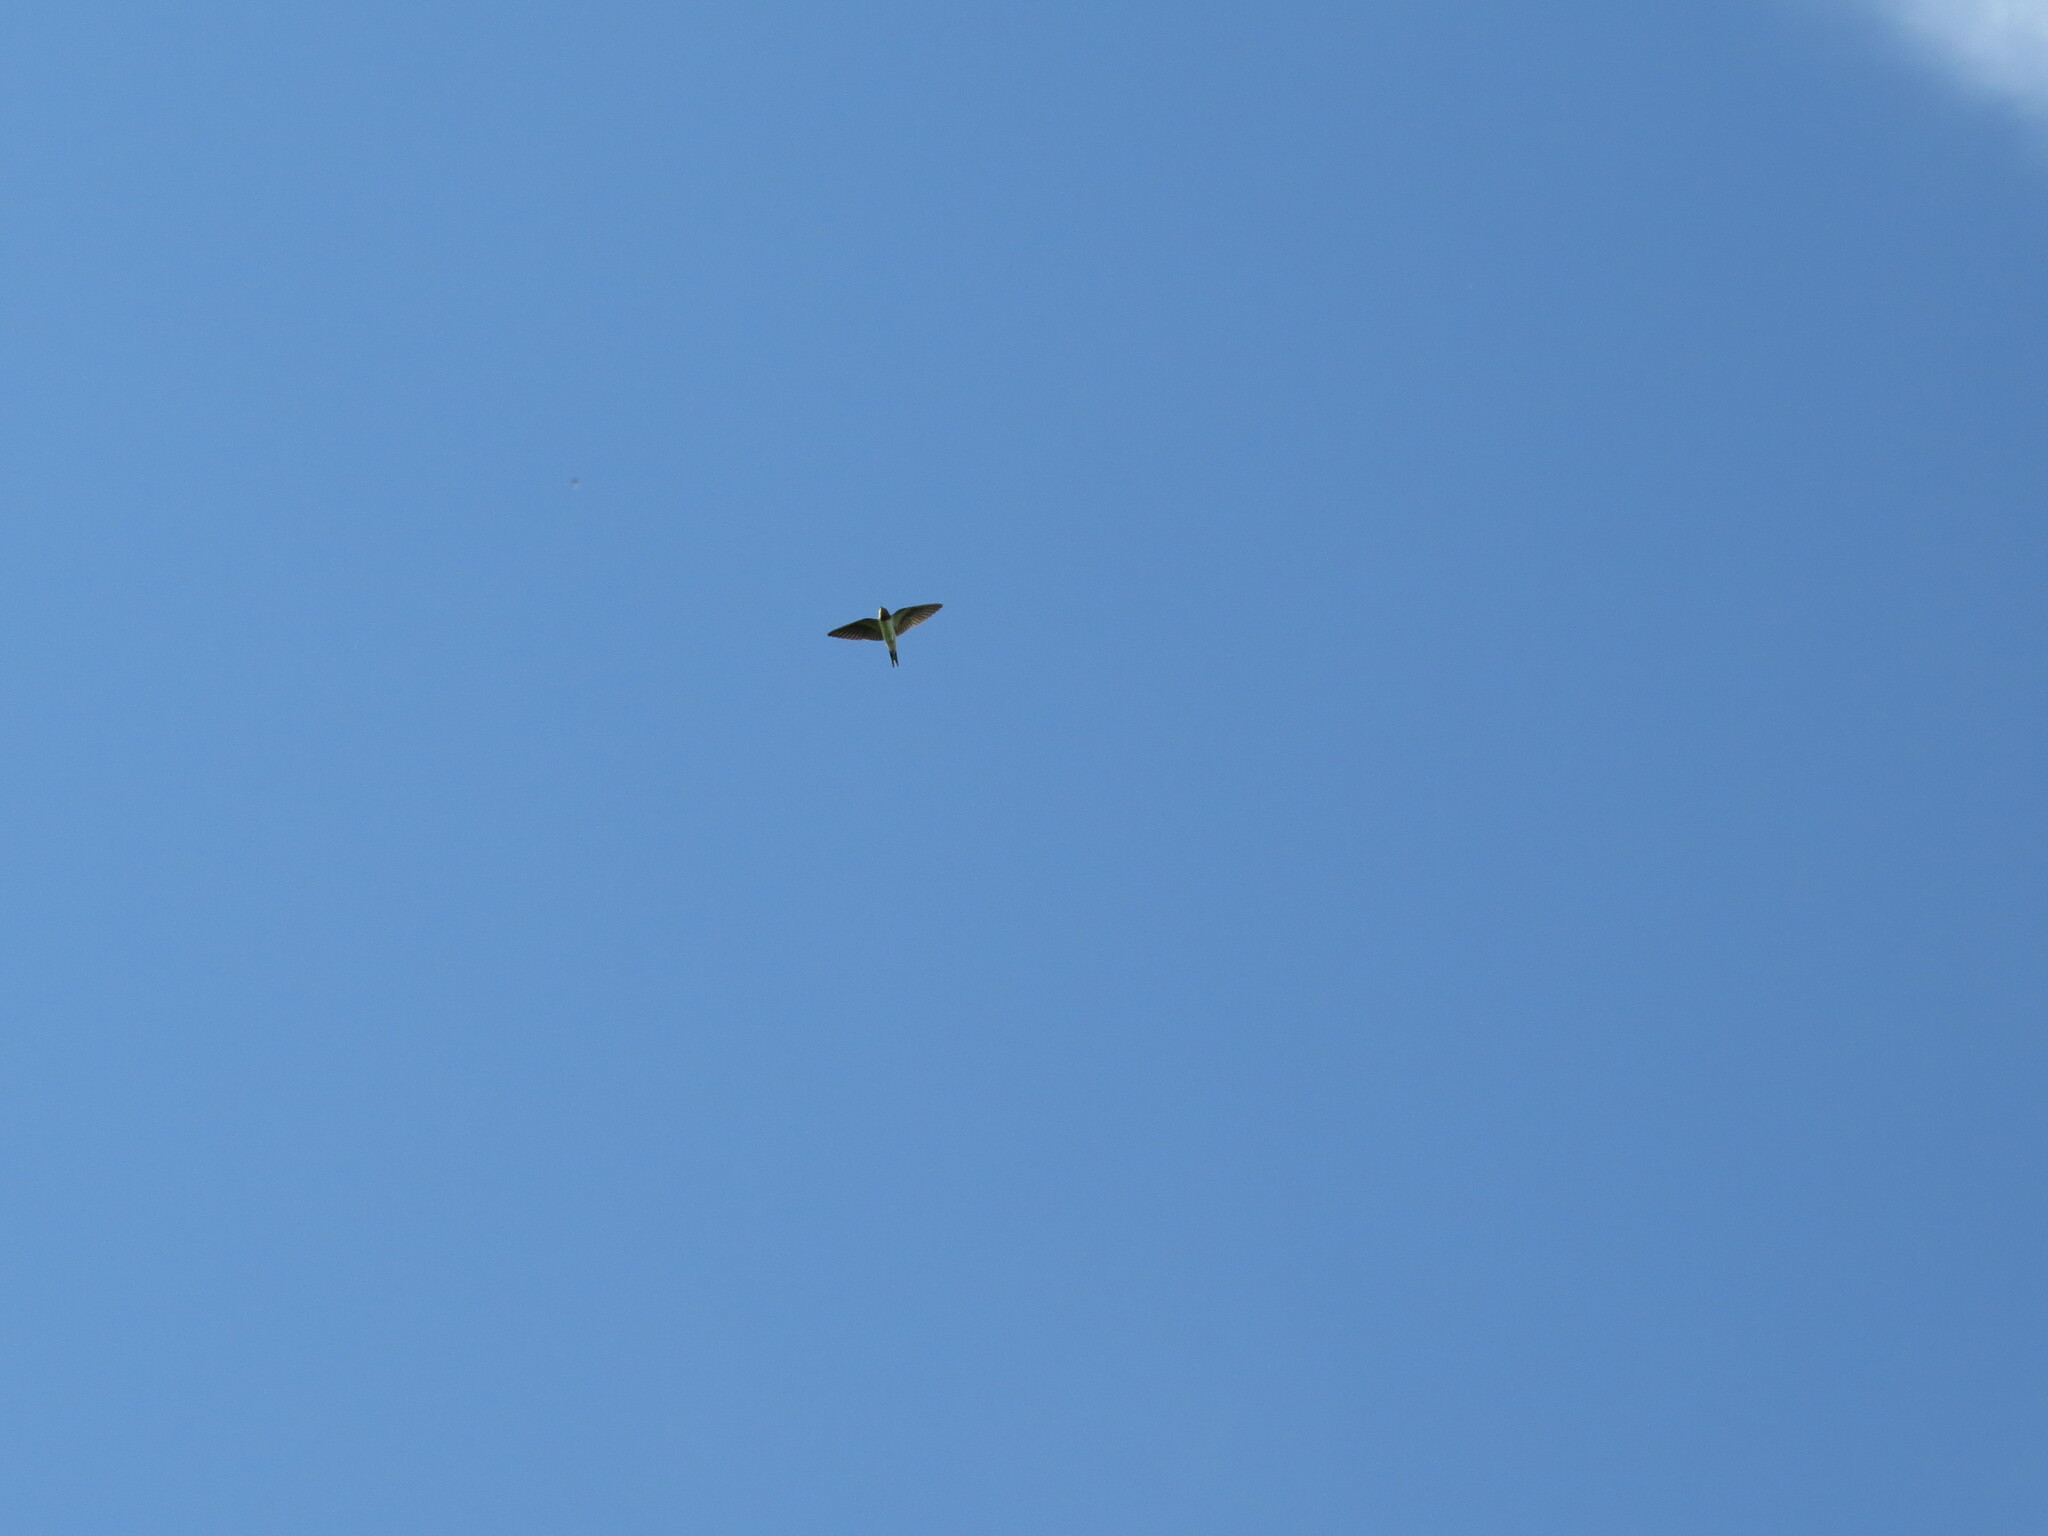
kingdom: Animalia
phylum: Chordata
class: Aves
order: Passeriformes
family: Hirundinidae
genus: Hirundo
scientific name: Hirundo rustica
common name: Barn swallow
